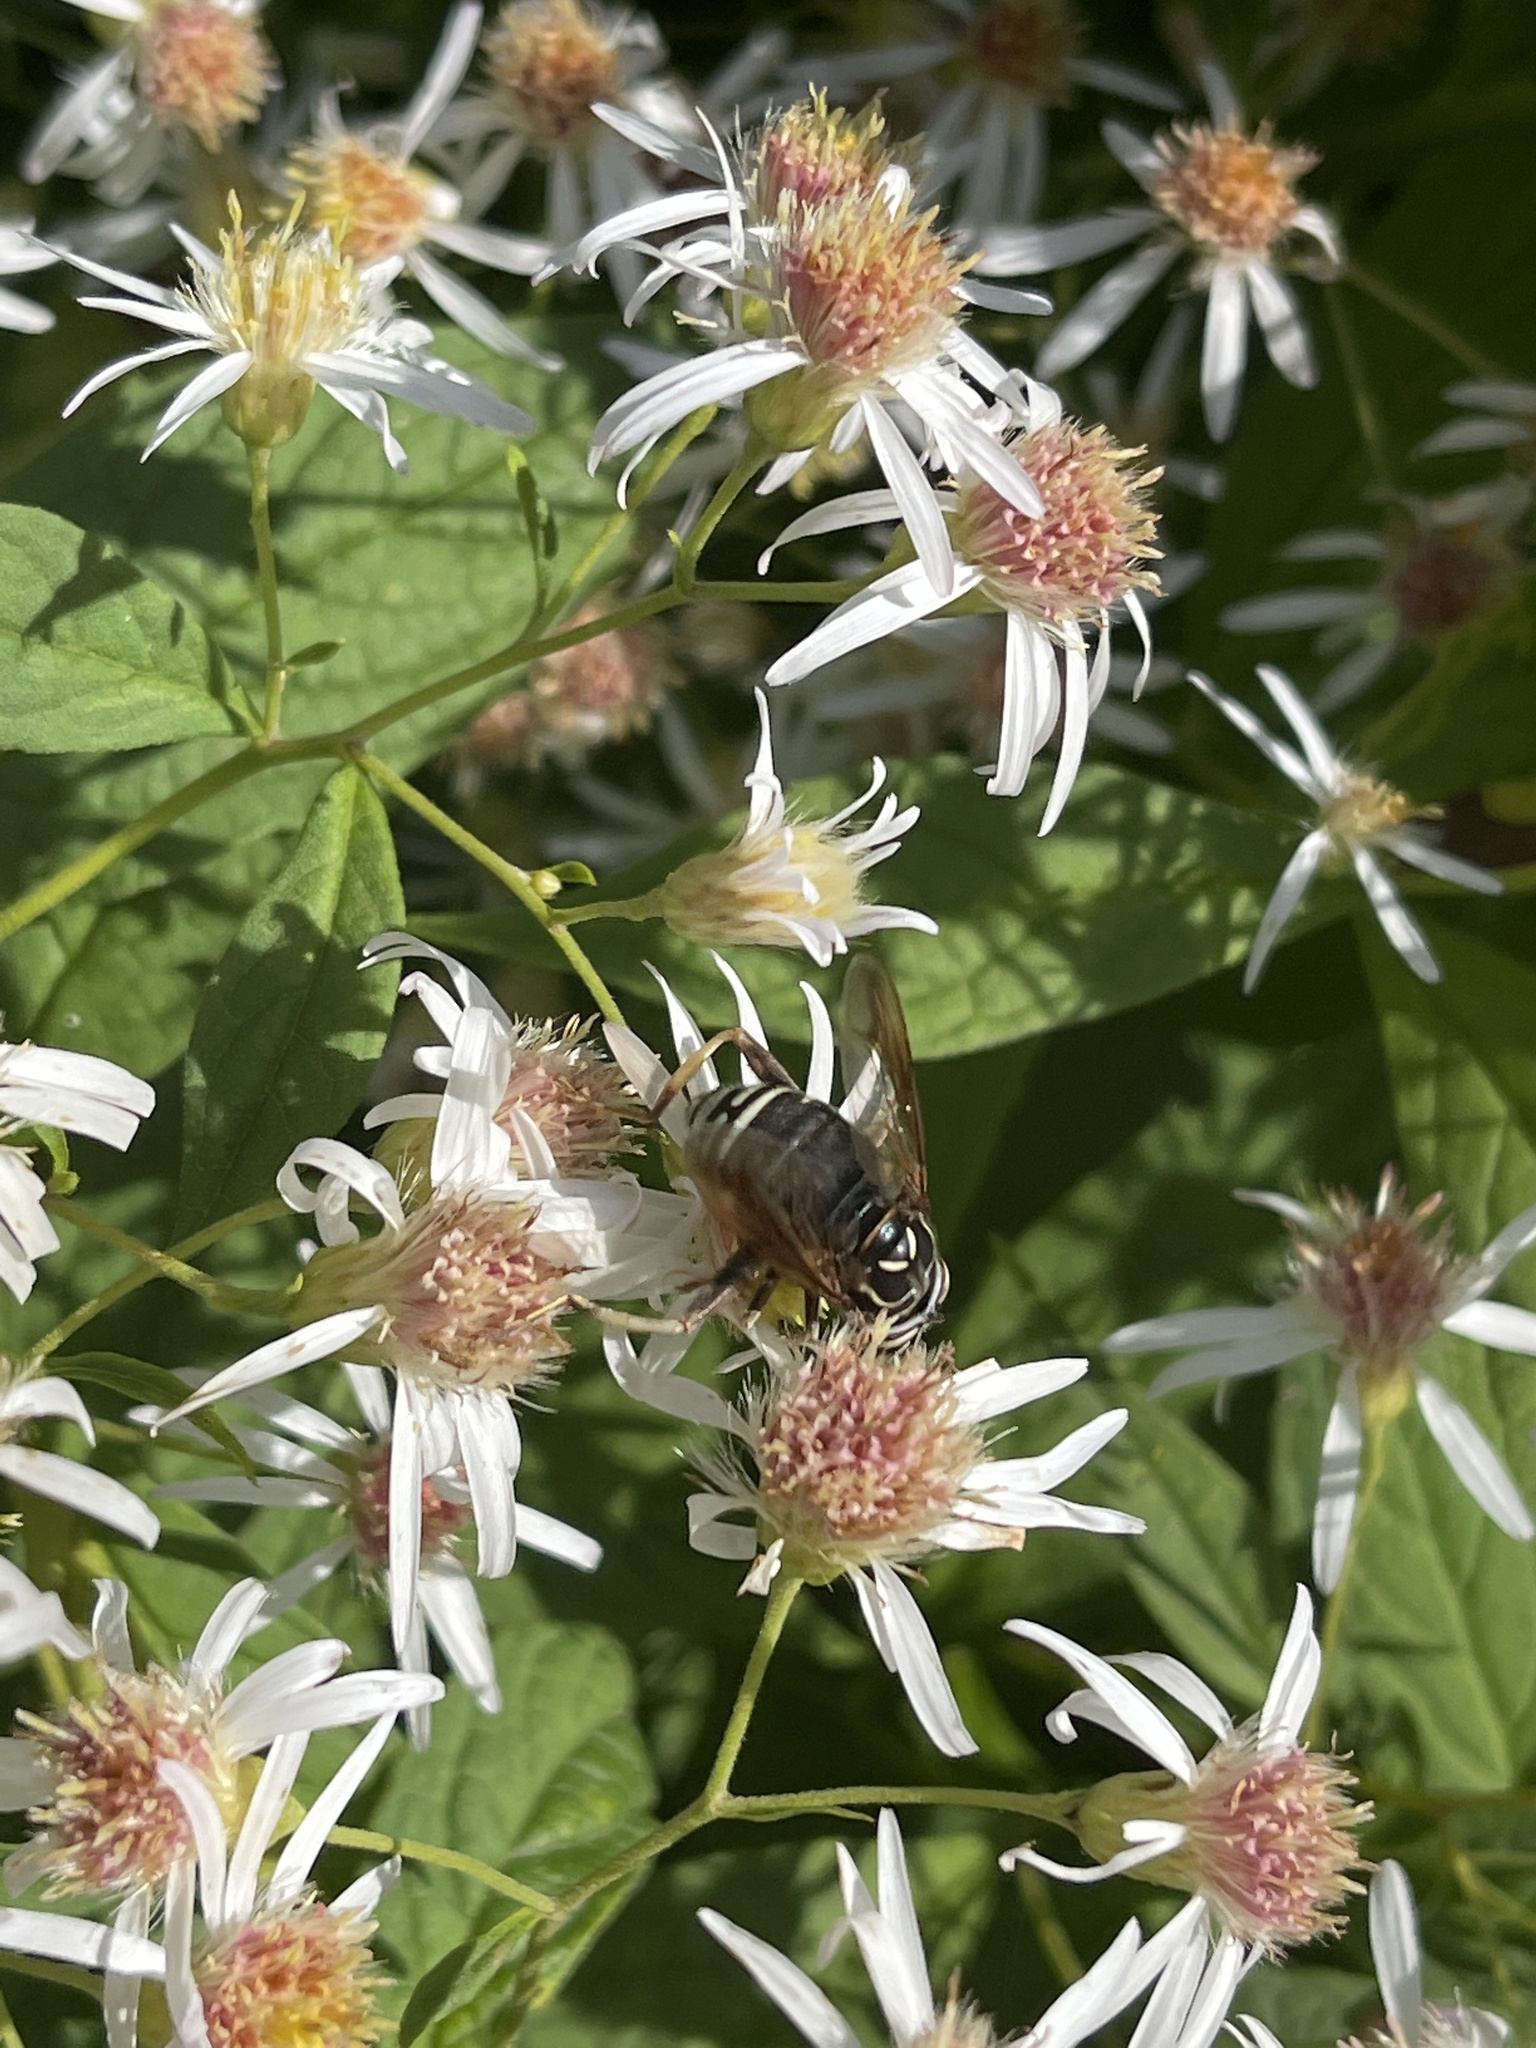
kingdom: Animalia
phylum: Arthropoda
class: Insecta
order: Diptera
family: Syrphidae
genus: Spilomyia
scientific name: Spilomyia fusca
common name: Bald-faced hornet fly
